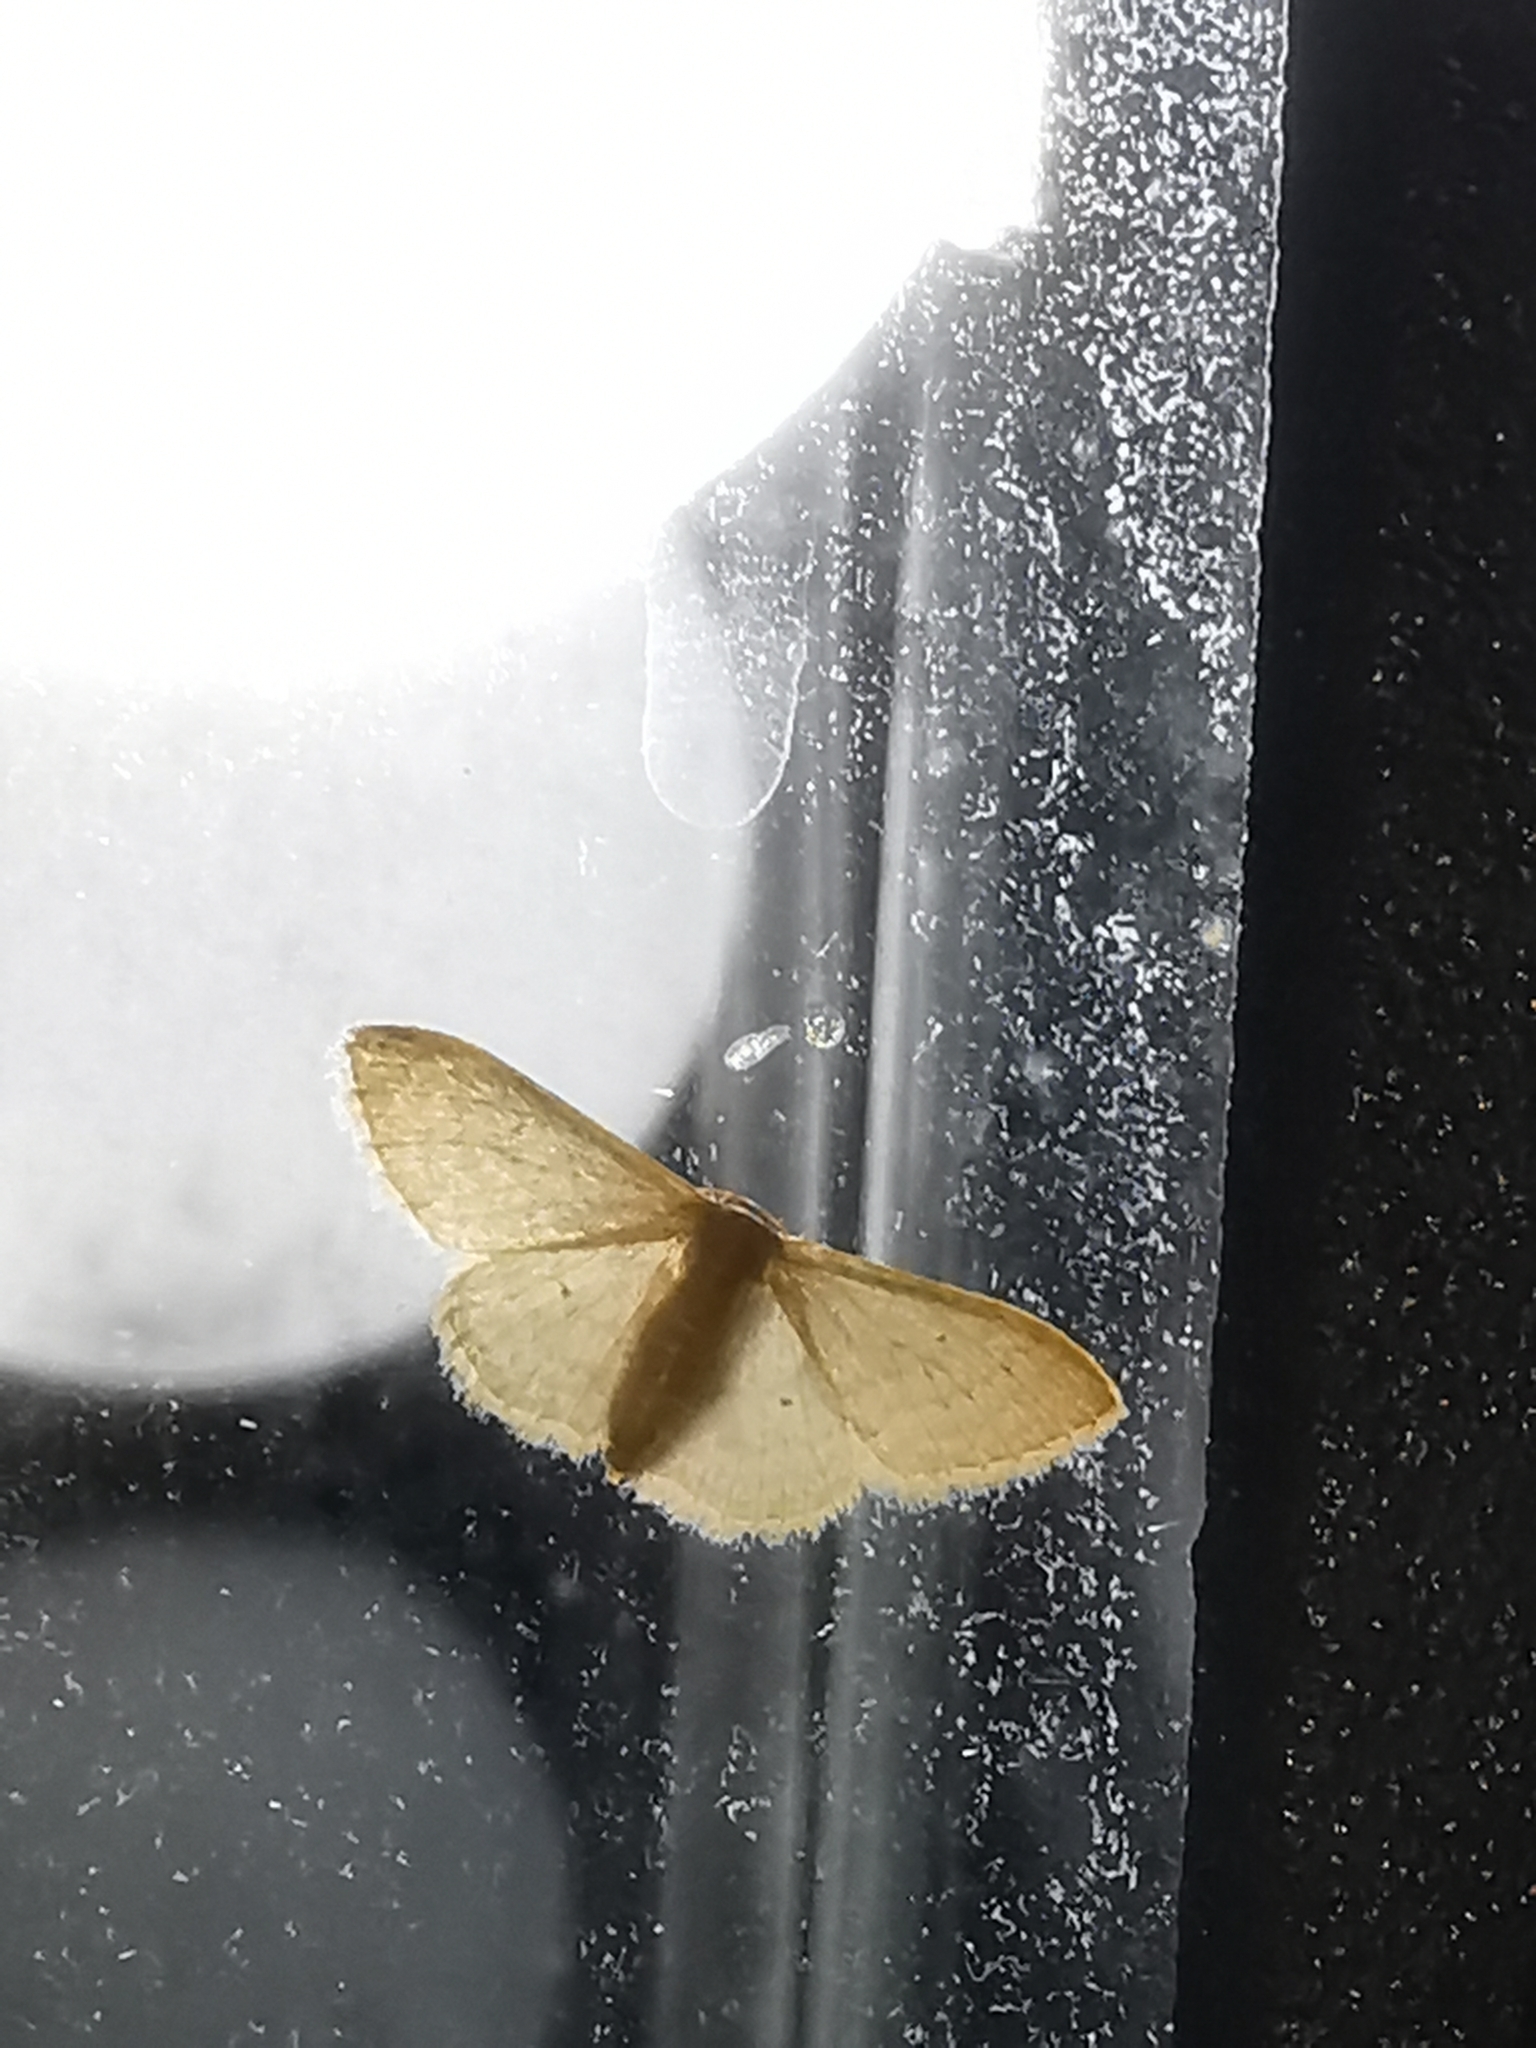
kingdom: Animalia
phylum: Arthropoda
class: Insecta
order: Lepidoptera
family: Geometridae
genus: Idaea
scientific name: Idaea distinctaria
